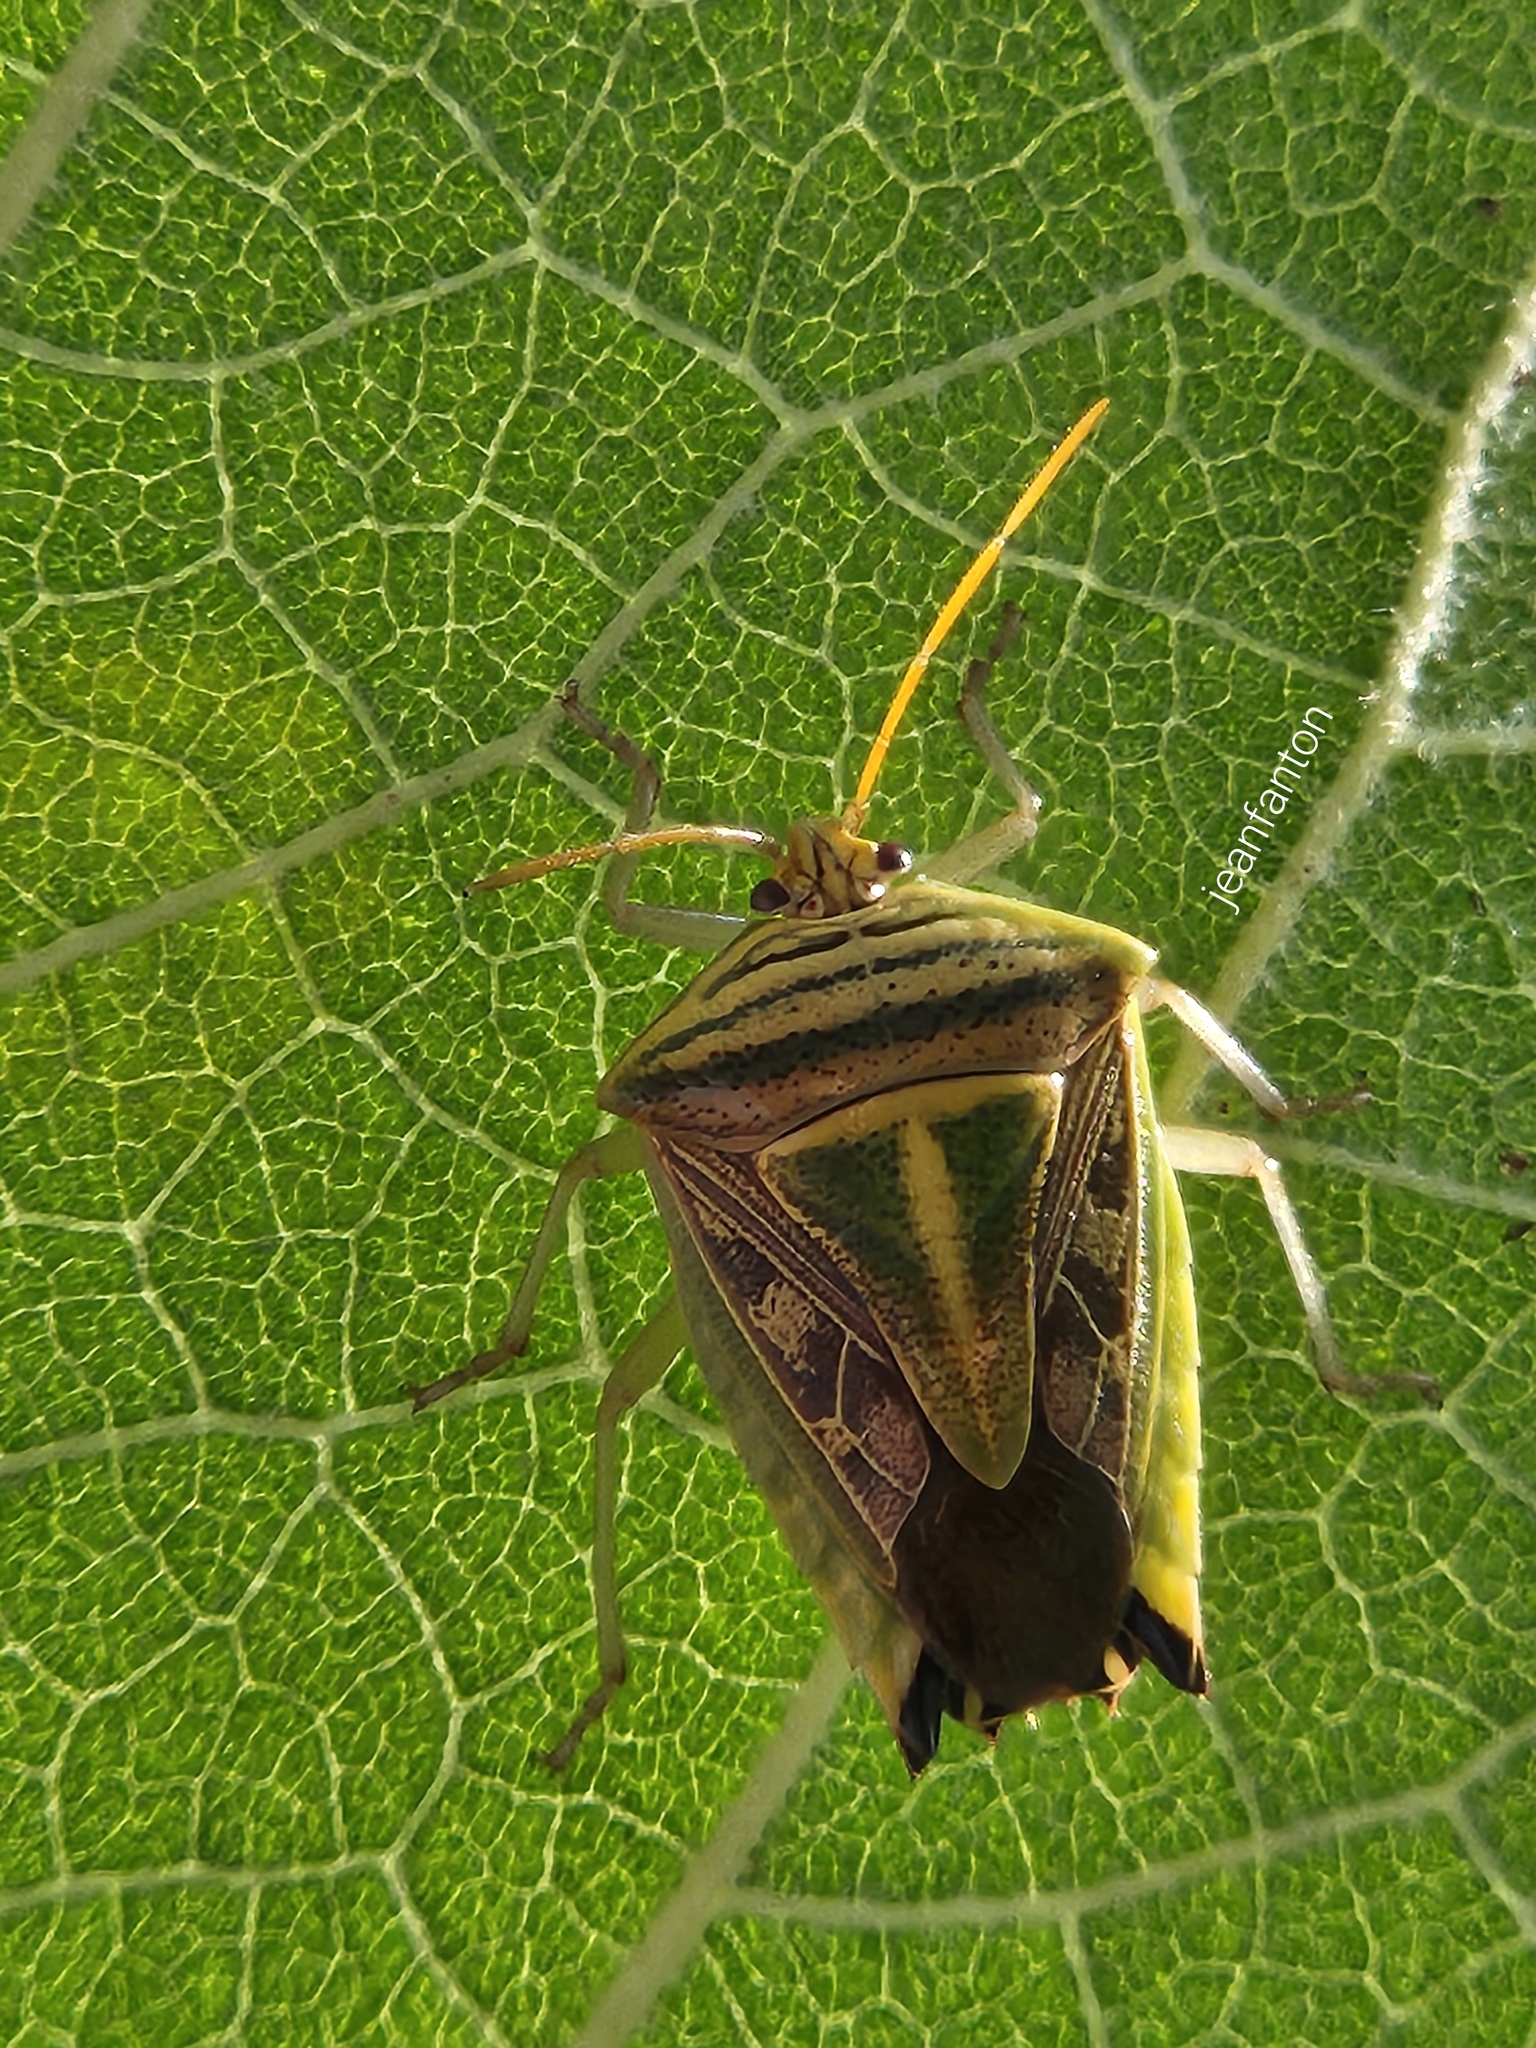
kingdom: Animalia
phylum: Arthropoda
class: Insecta
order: Hemiptera
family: Pentatomidae
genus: Edessa
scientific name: Edessa
